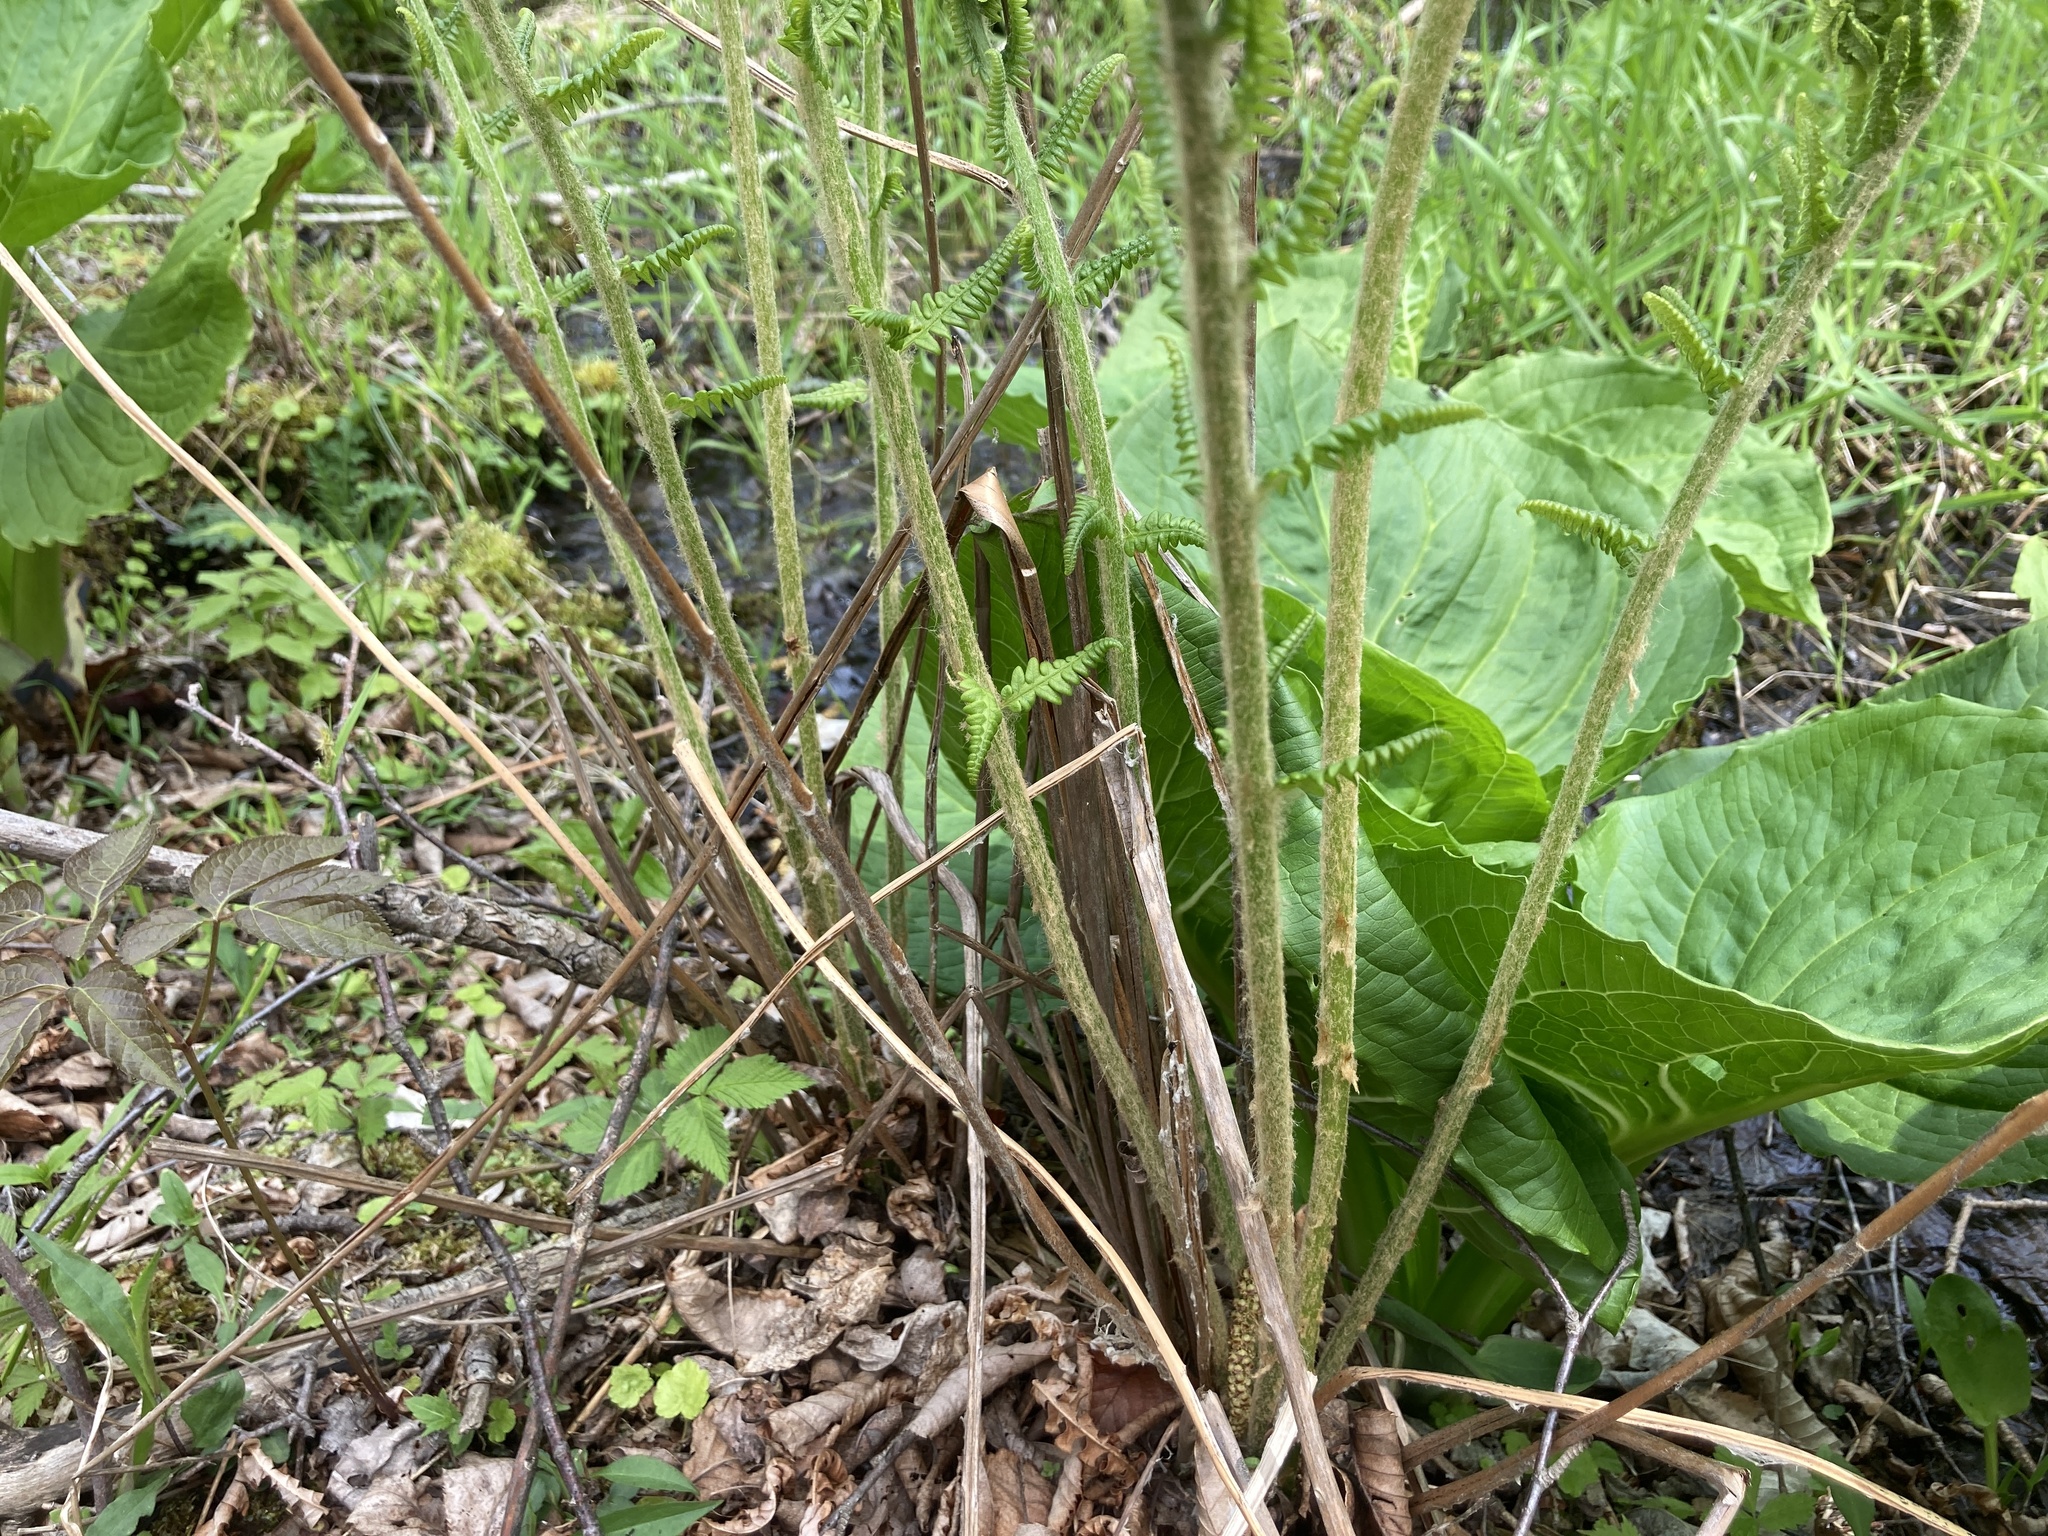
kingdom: Plantae
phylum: Tracheophyta
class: Polypodiopsida
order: Osmundales
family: Osmundaceae
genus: Osmundastrum
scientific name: Osmundastrum cinnamomeum
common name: Cinnamon fern
